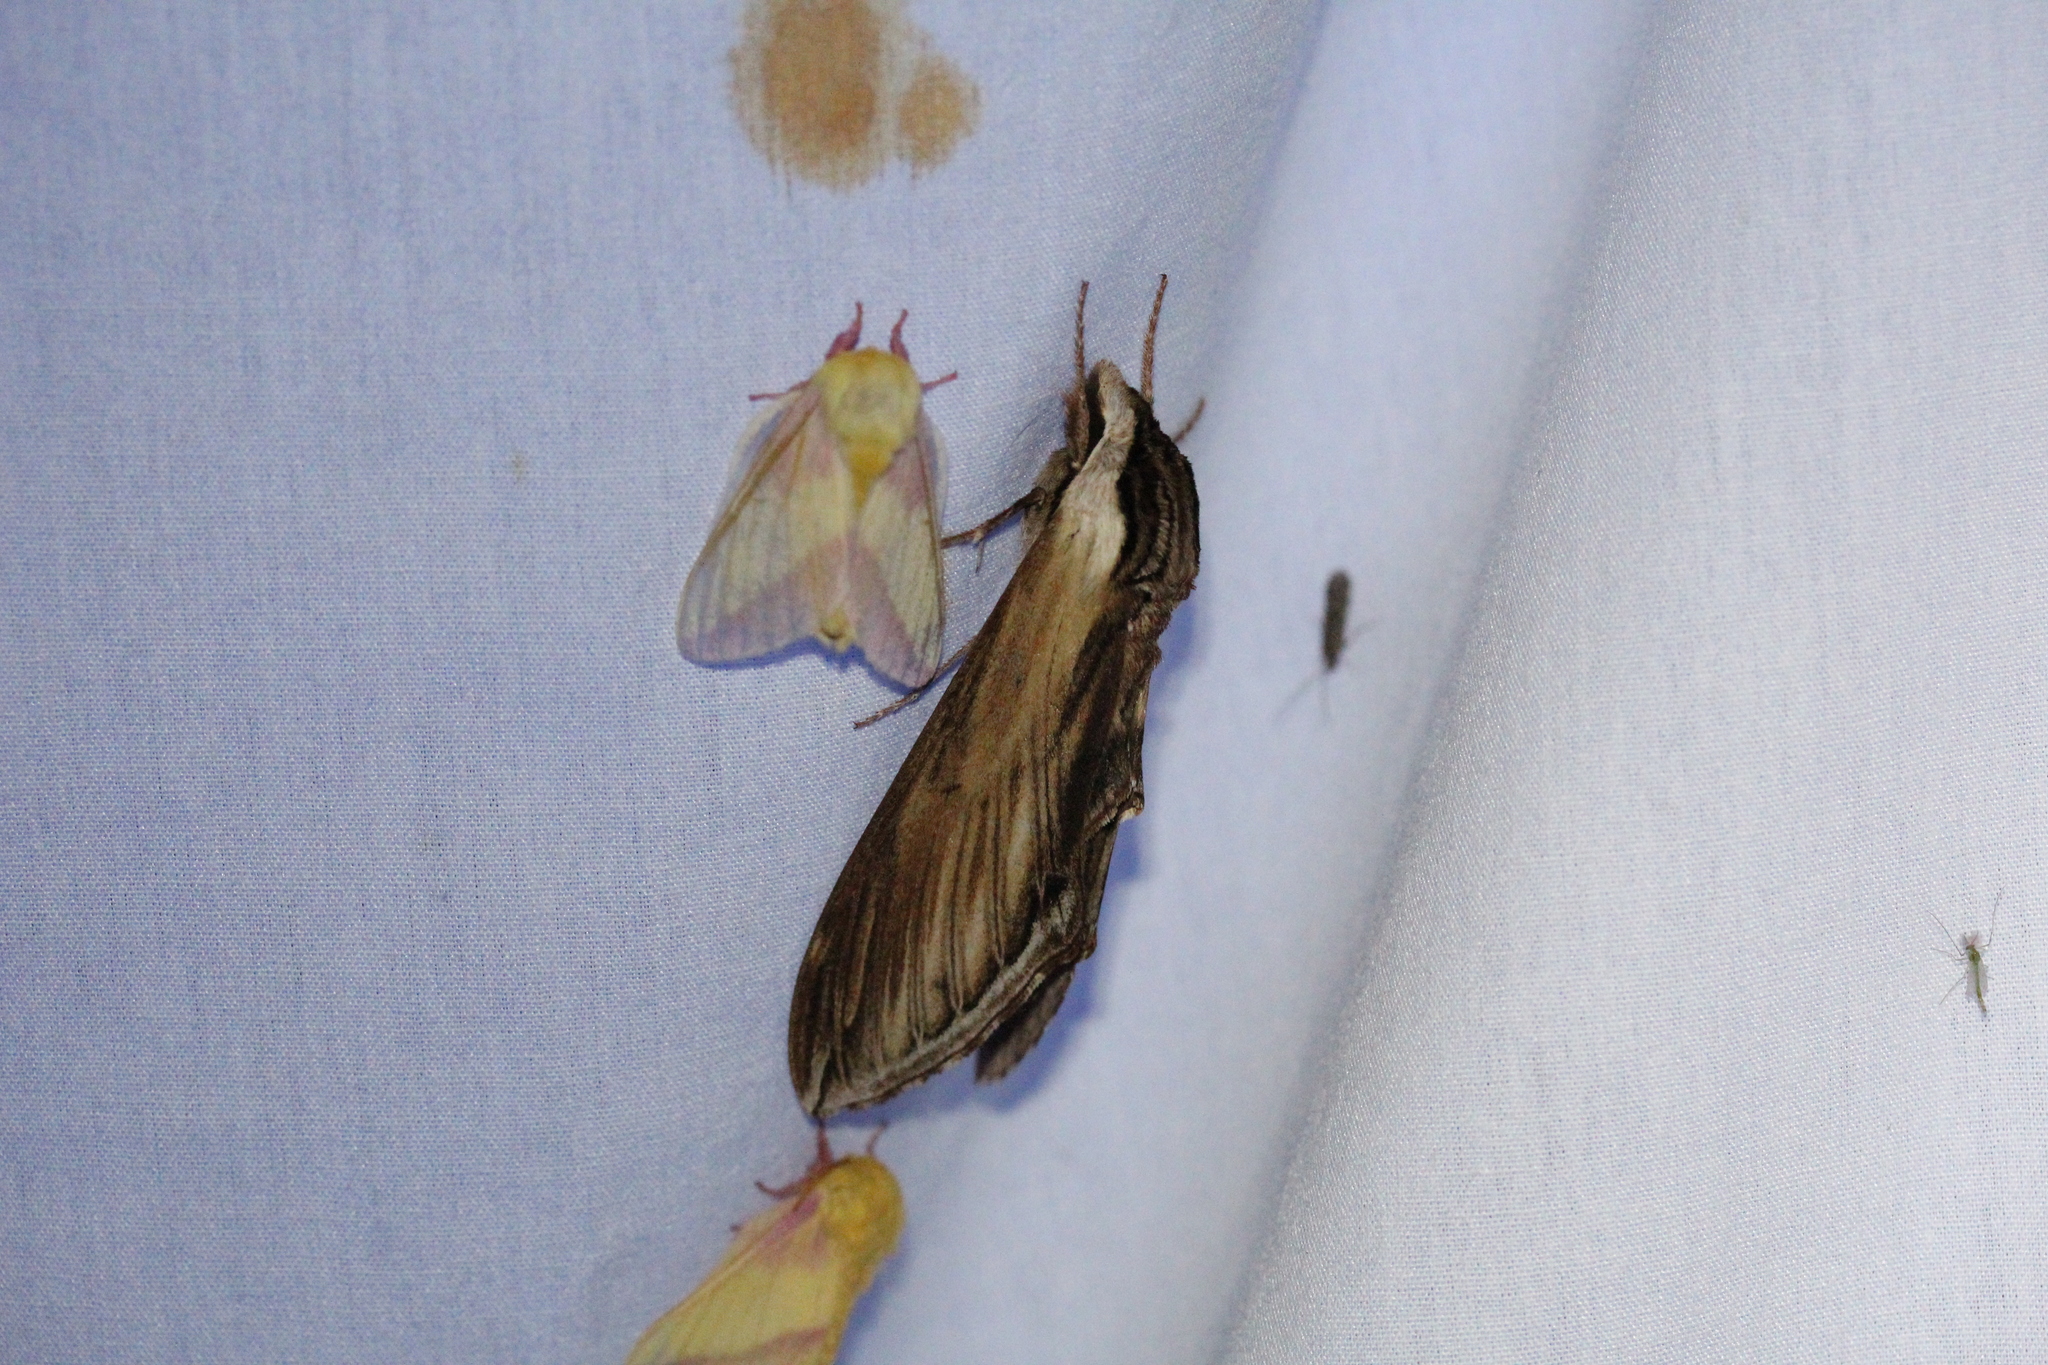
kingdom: Animalia
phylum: Arthropoda
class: Insecta
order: Lepidoptera
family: Sphingidae
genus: Sphinx
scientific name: Sphinx kalmiae
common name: Laurel sphinx
